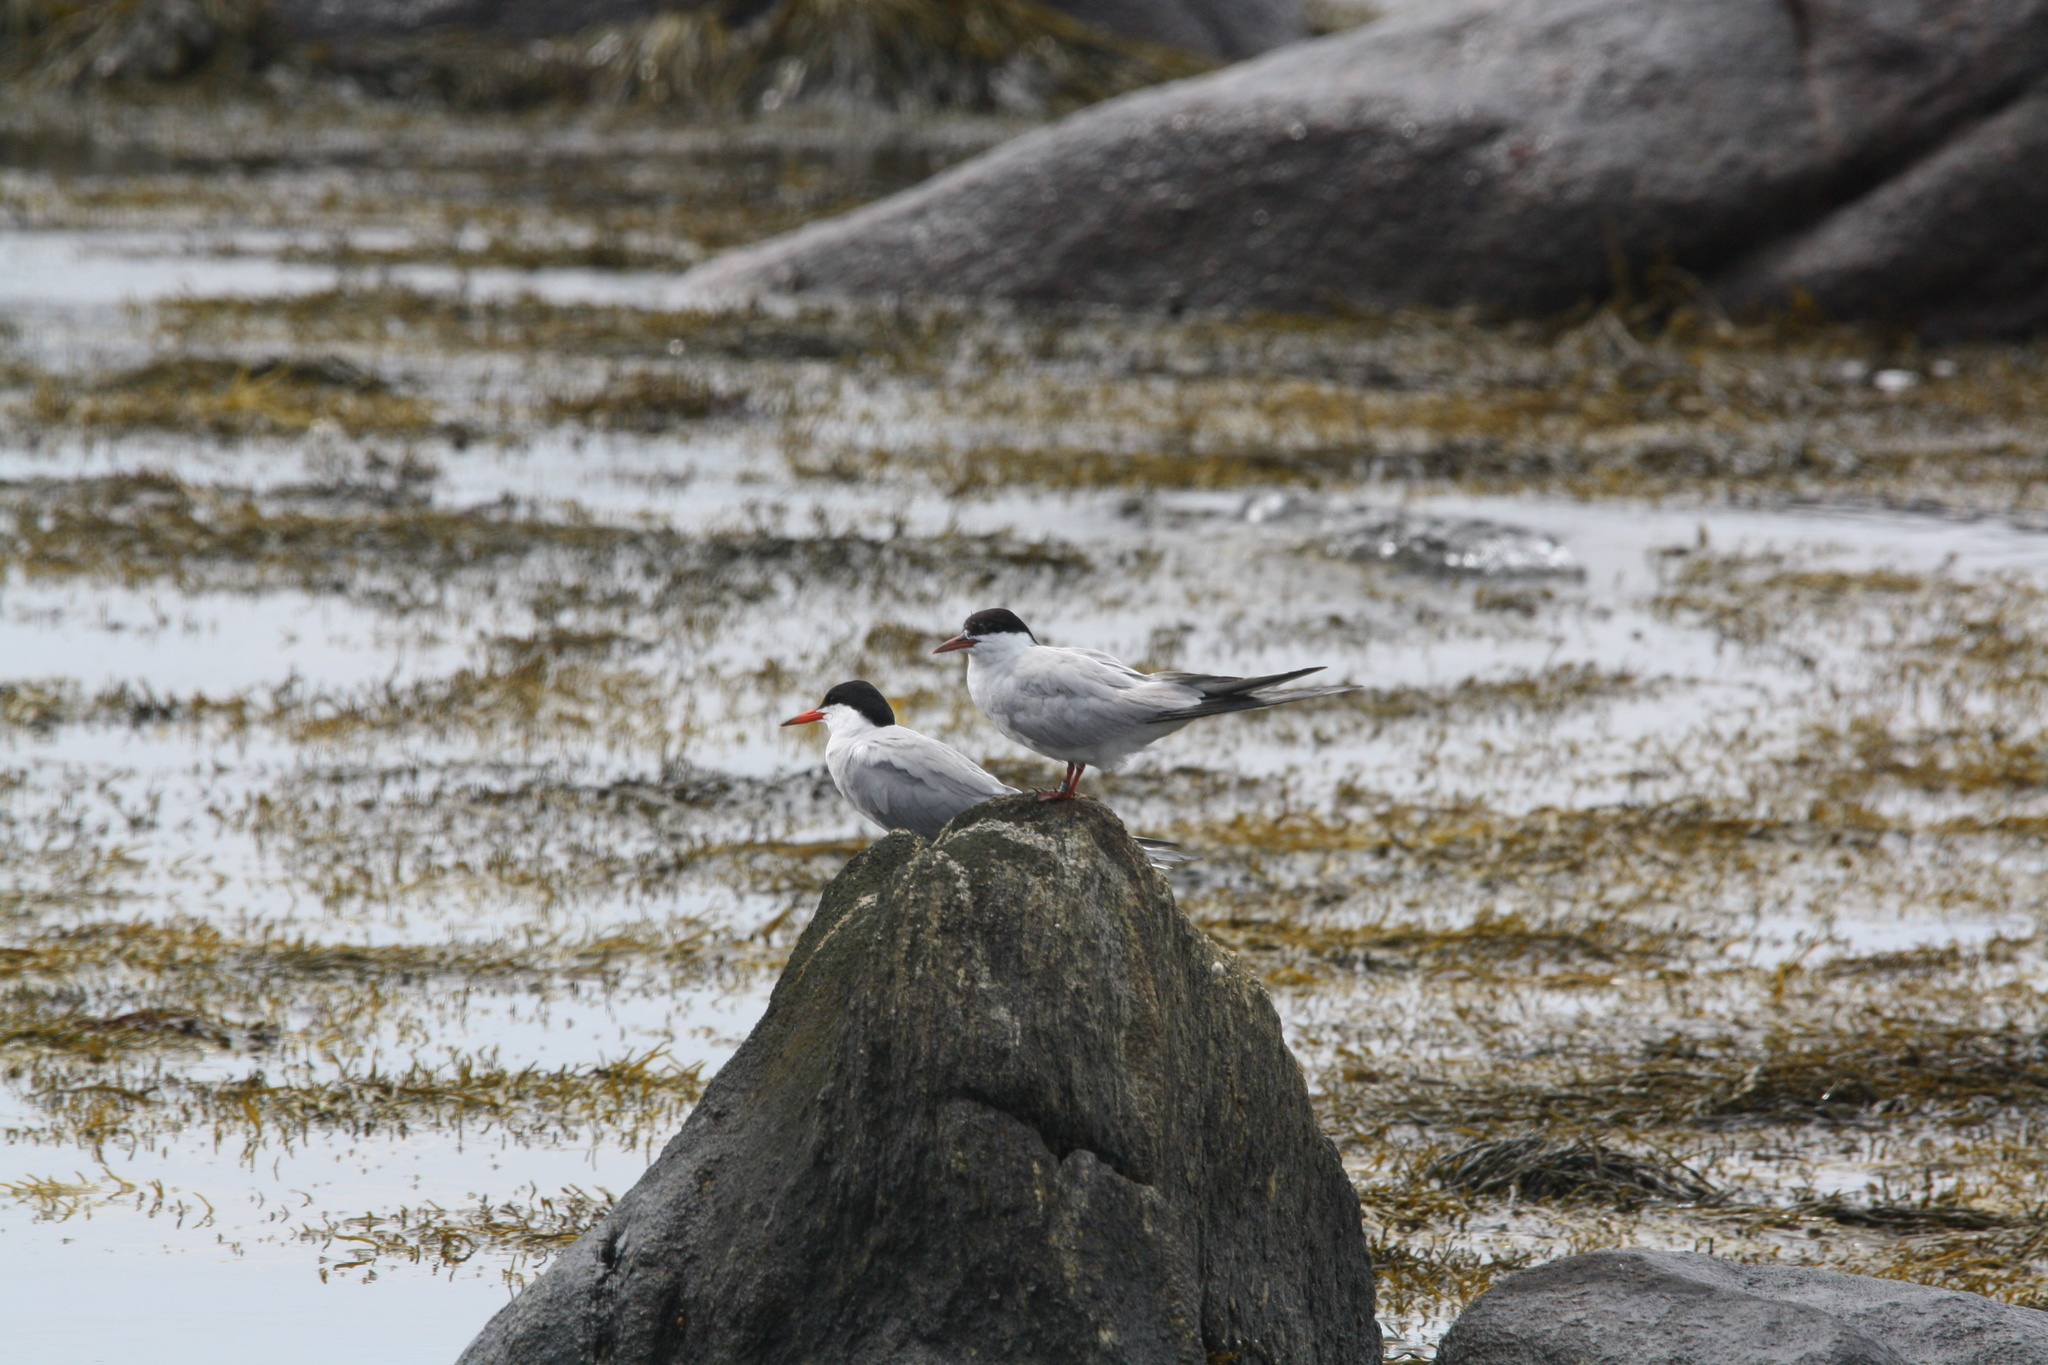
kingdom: Animalia
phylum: Chordata
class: Aves
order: Charadriiformes
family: Laridae
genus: Sterna
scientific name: Sterna hirundo
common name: Common tern
